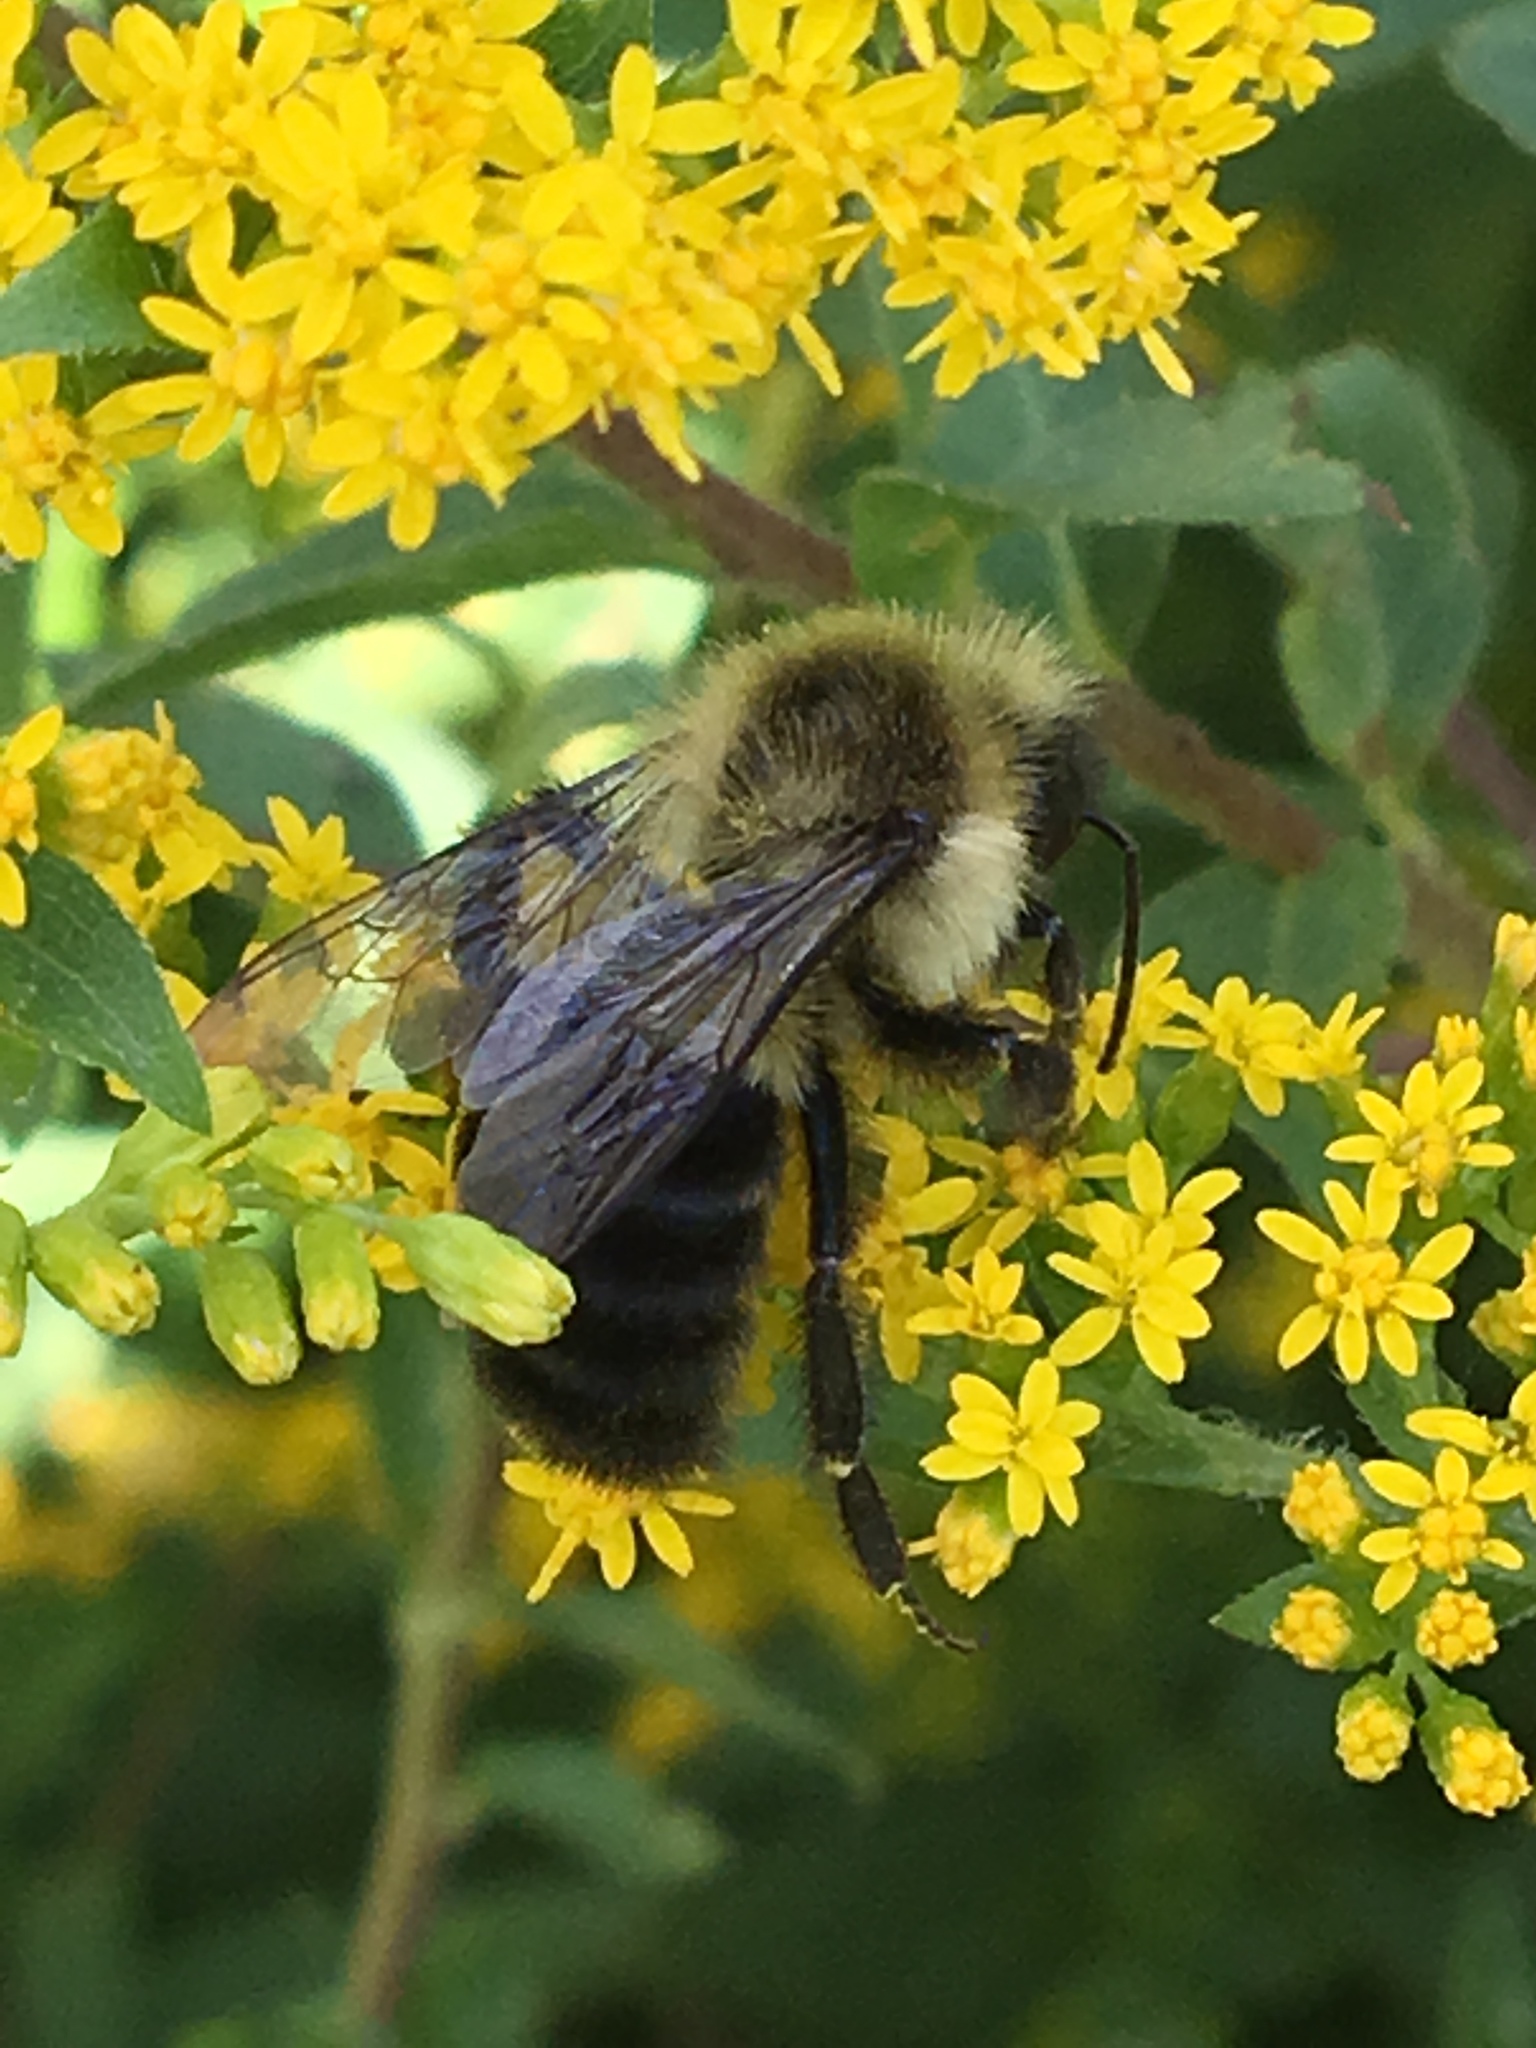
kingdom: Animalia
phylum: Arthropoda
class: Insecta
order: Hymenoptera
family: Apidae
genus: Bombus
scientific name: Bombus impatiens
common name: Common eastern bumble bee
